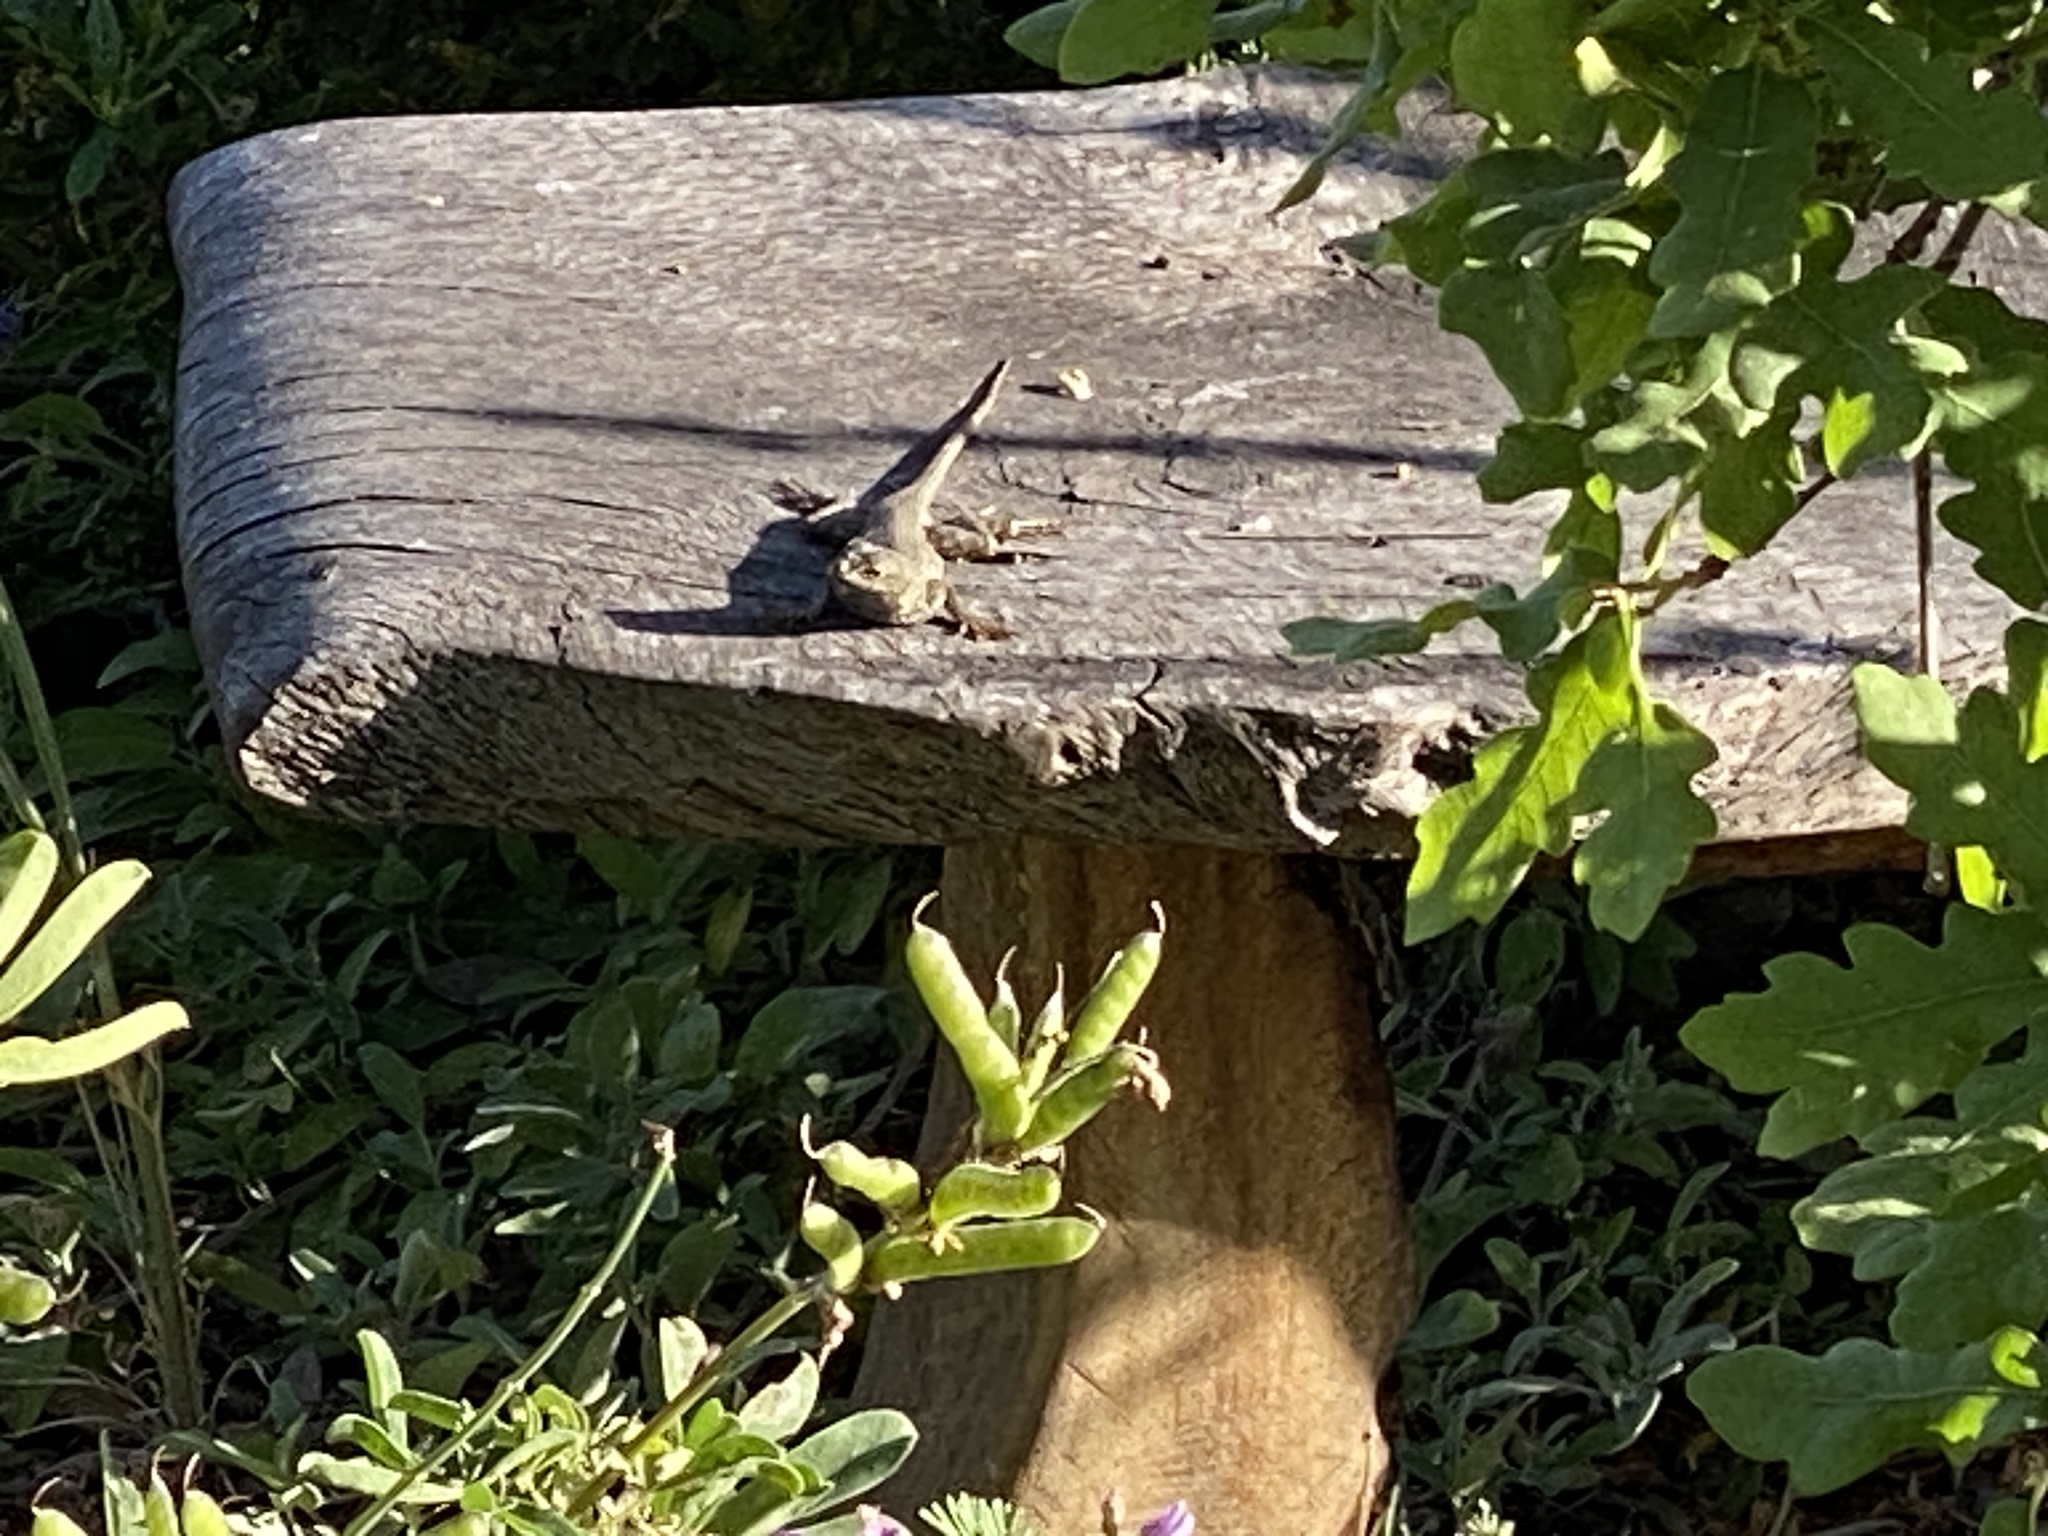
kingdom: Animalia
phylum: Chordata
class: Squamata
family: Phrynosomatidae
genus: Sceloporus
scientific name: Sceloporus occidentalis
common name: Western fence lizard
